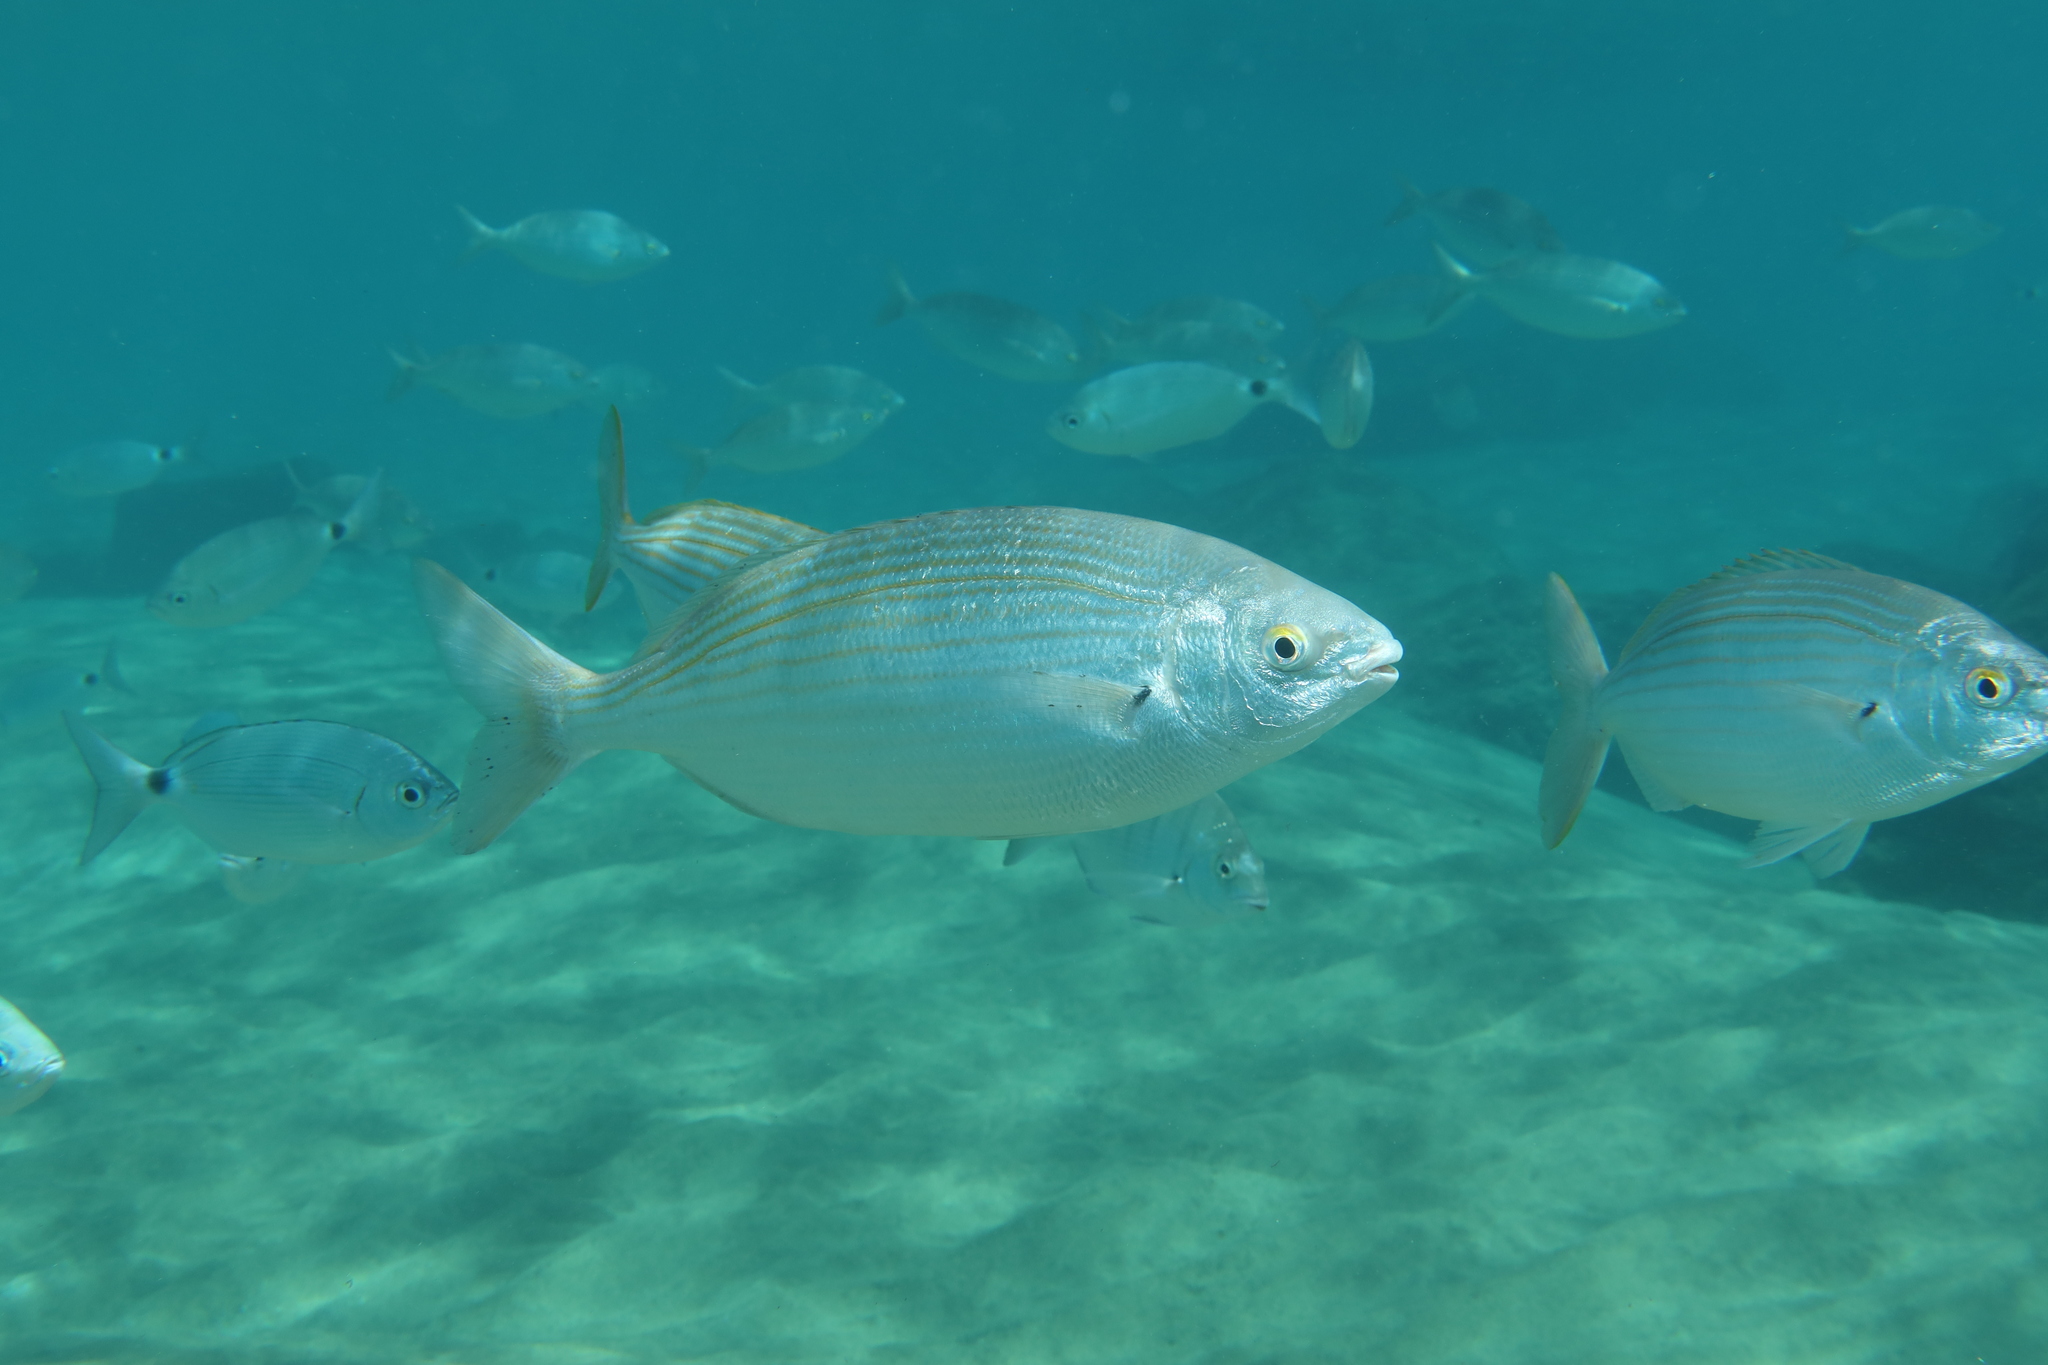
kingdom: Animalia
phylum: Chordata
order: Perciformes
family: Sparidae
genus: Sarpa
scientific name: Sarpa salpa
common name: Salema
